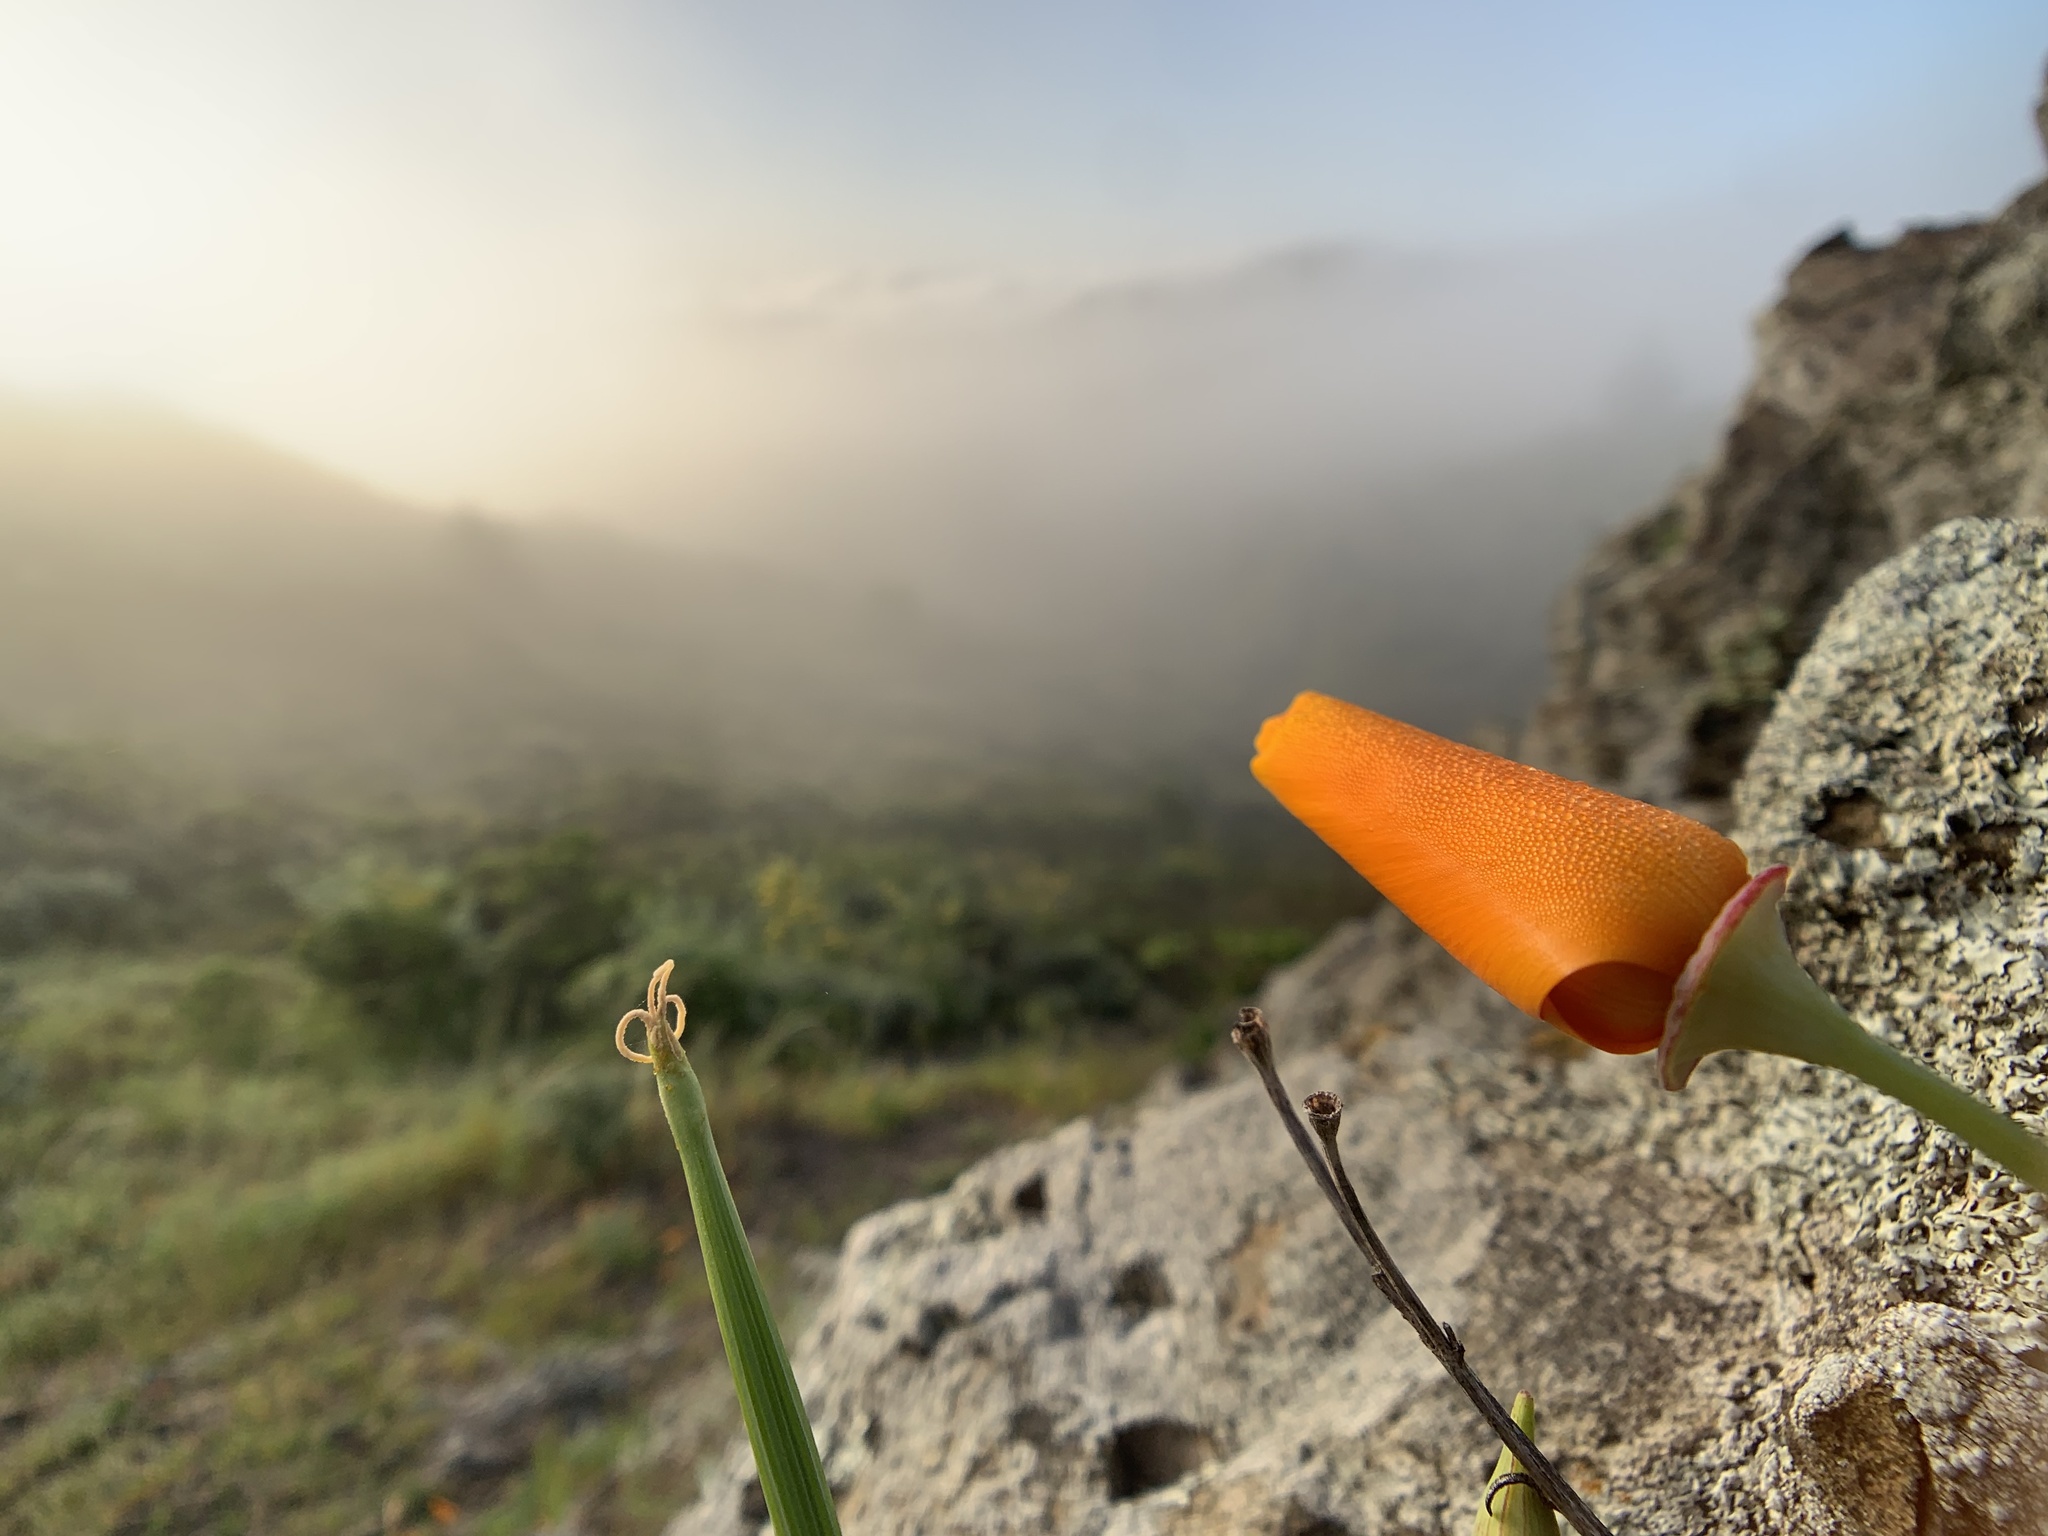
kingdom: Plantae
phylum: Tracheophyta
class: Magnoliopsida
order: Ranunculales
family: Papaveraceae
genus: Eschscholzia
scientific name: Eschscholzia californica
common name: California poppy
